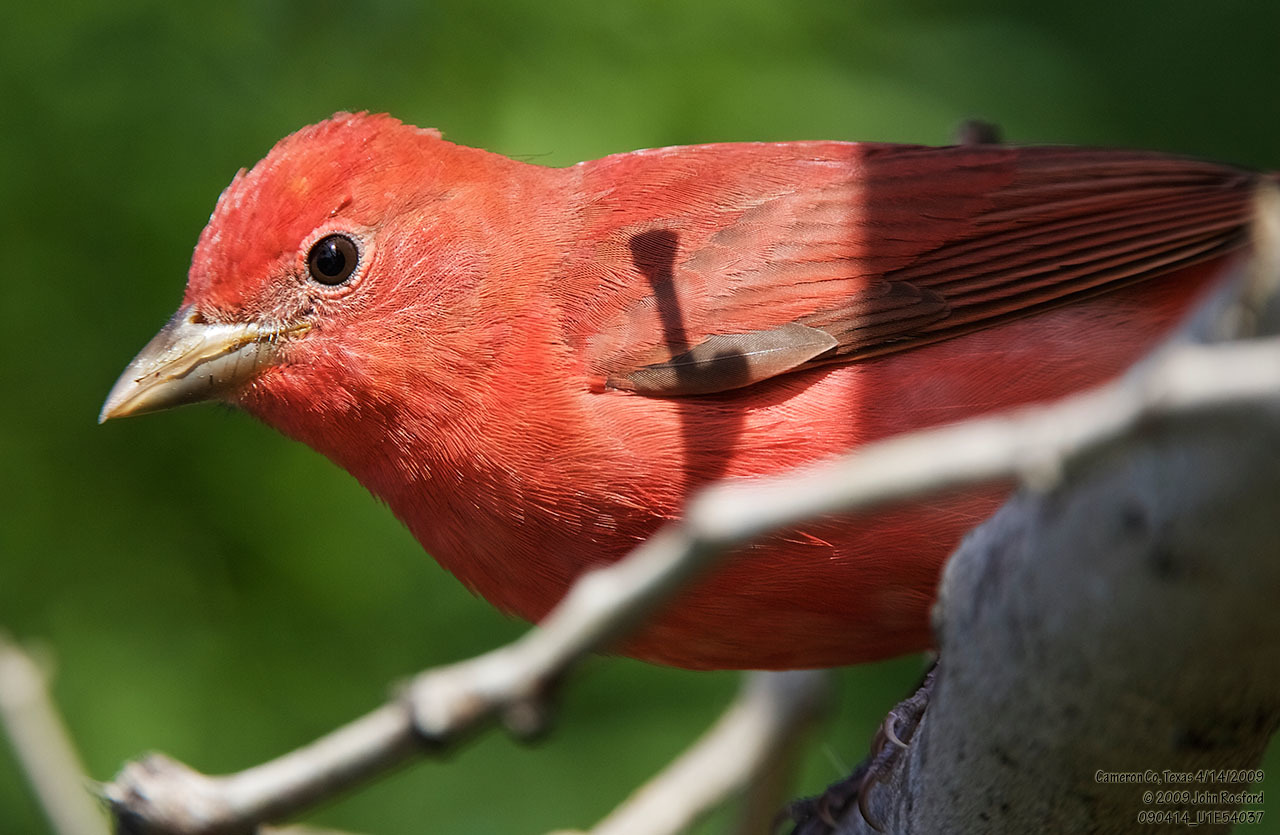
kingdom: Animalia
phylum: Chordata
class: Aves
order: Passeriformes
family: Cardinalidae
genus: Piranga
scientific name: Piranga rubra
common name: Summer tanager
